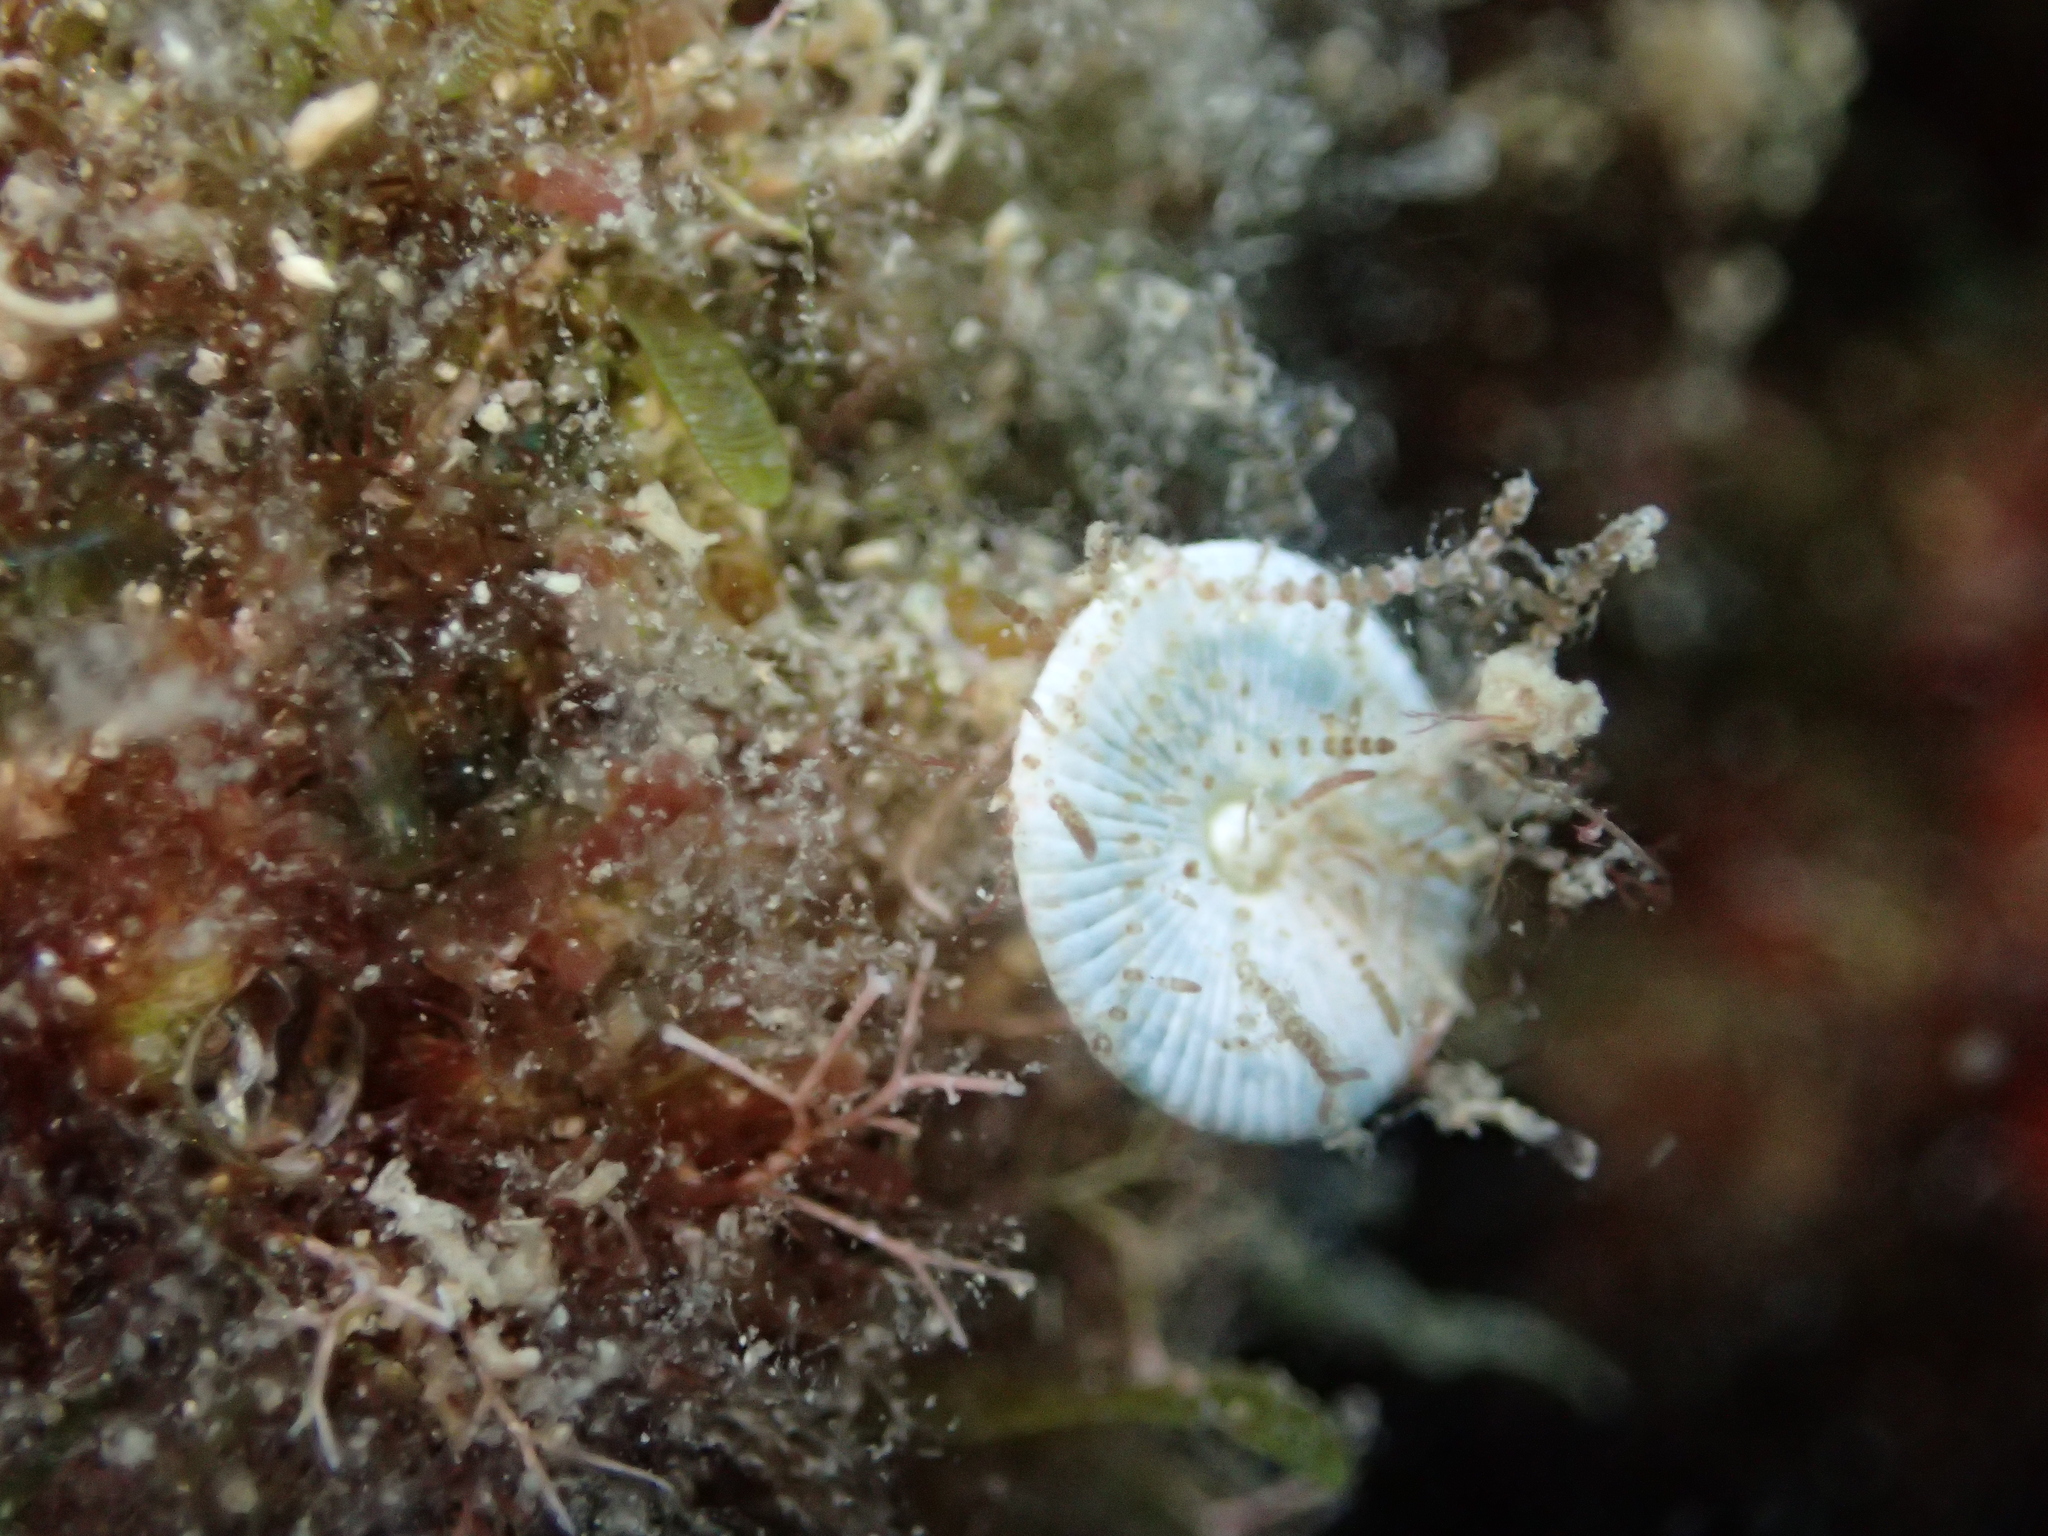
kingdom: Plantae
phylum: Chlorophyta
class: Ulvophyceae
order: Dasycladales
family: Polyphysaceae
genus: Acetabularia
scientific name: Acetabularia acetabulum
